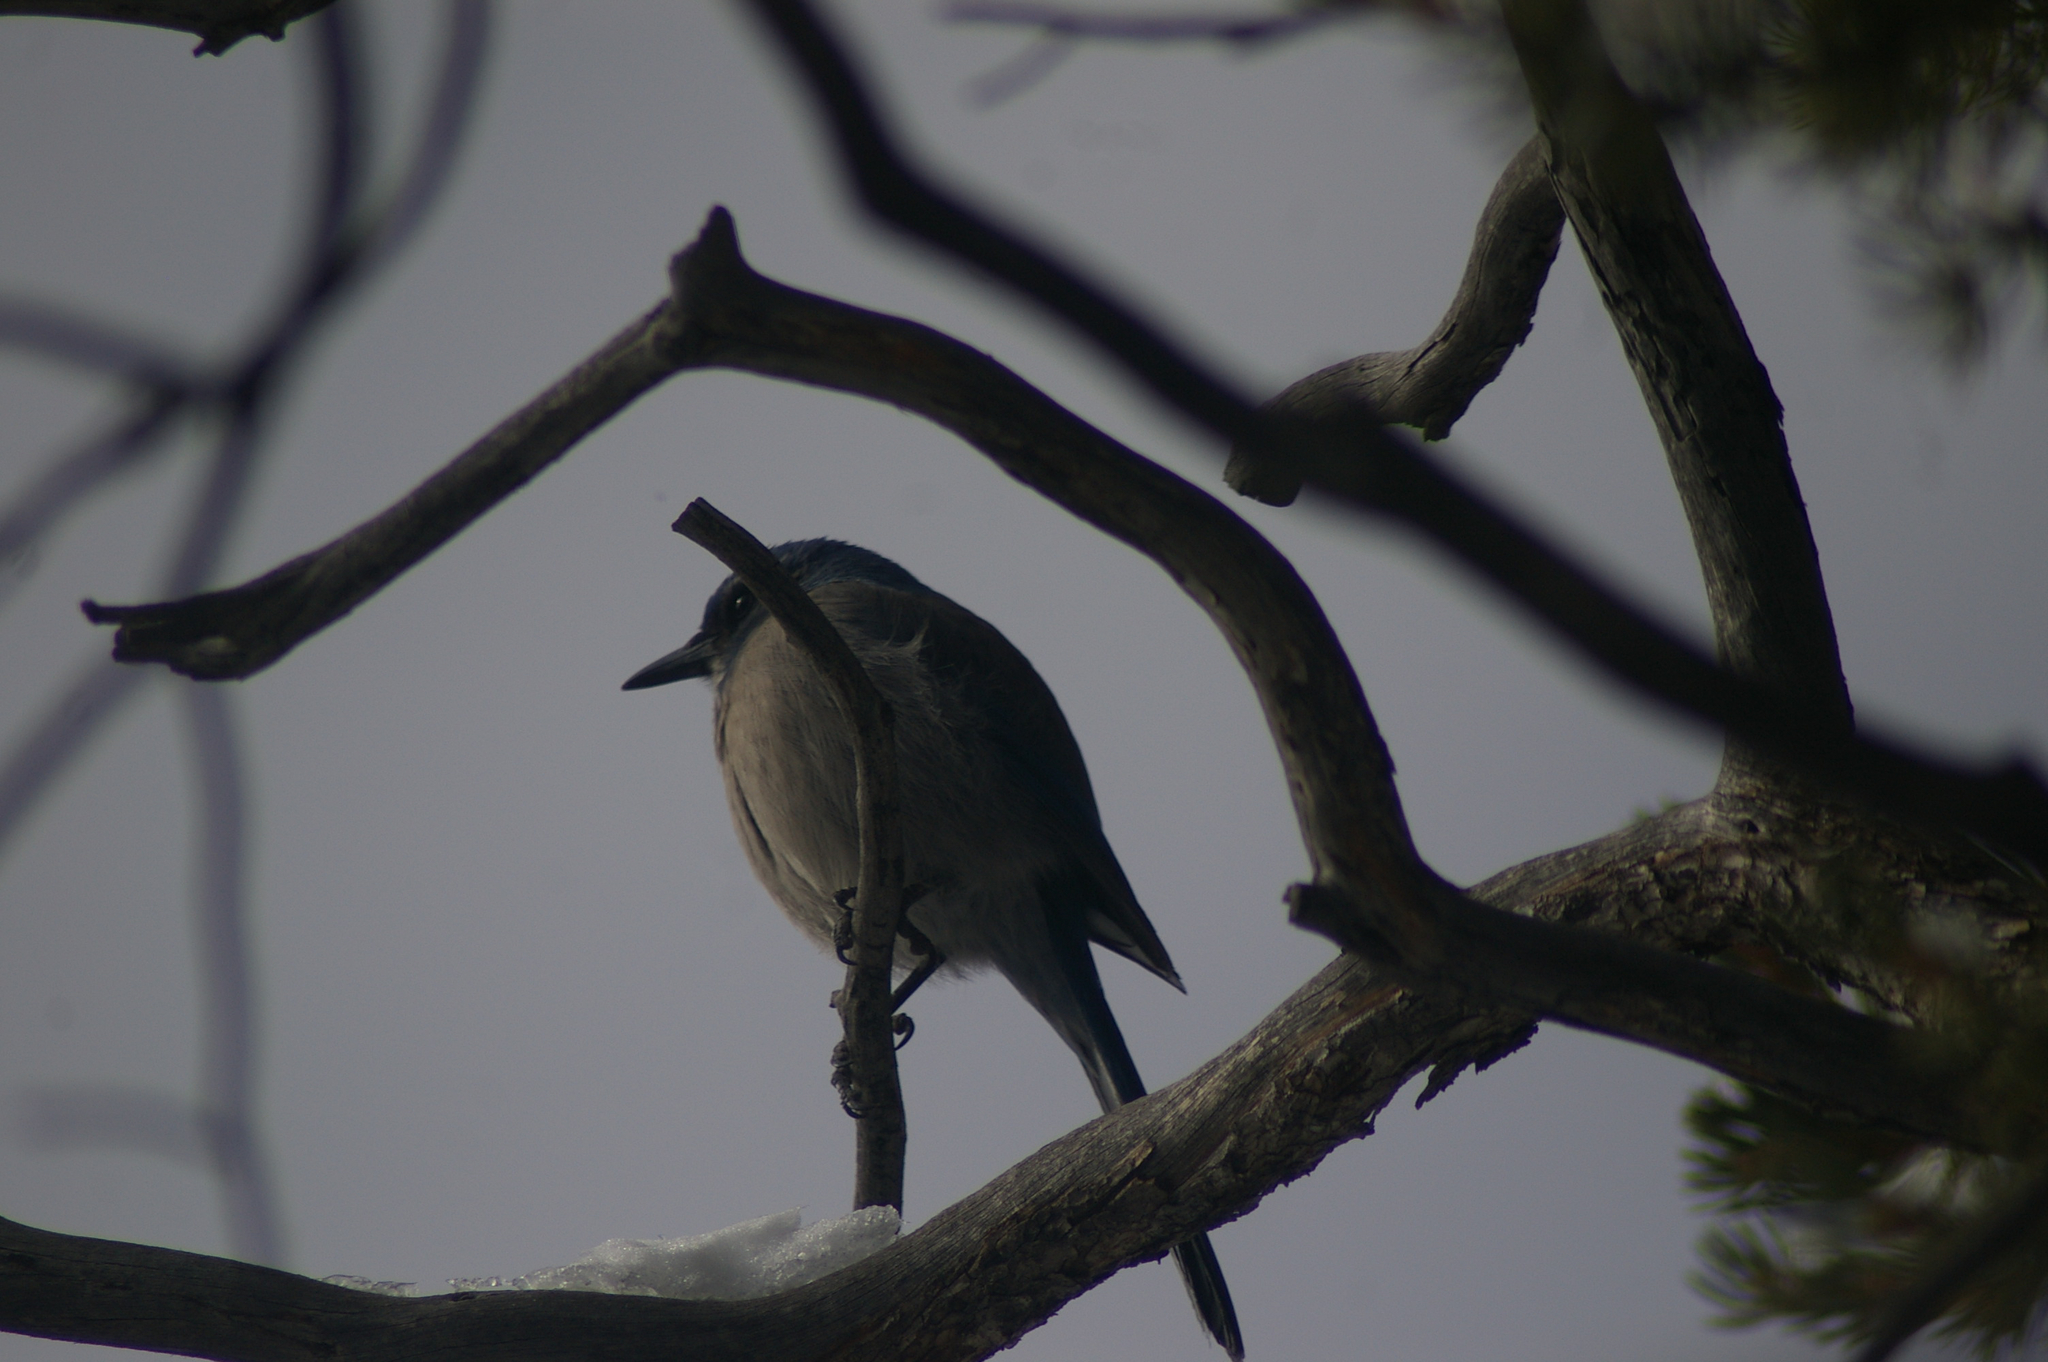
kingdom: Animalia
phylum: Chordata
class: Aves
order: Passeriformes
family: Corvidae
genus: Aphelocoma
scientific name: Aphelocoma woodhouseii
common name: Woodhouse's scrub-jay
